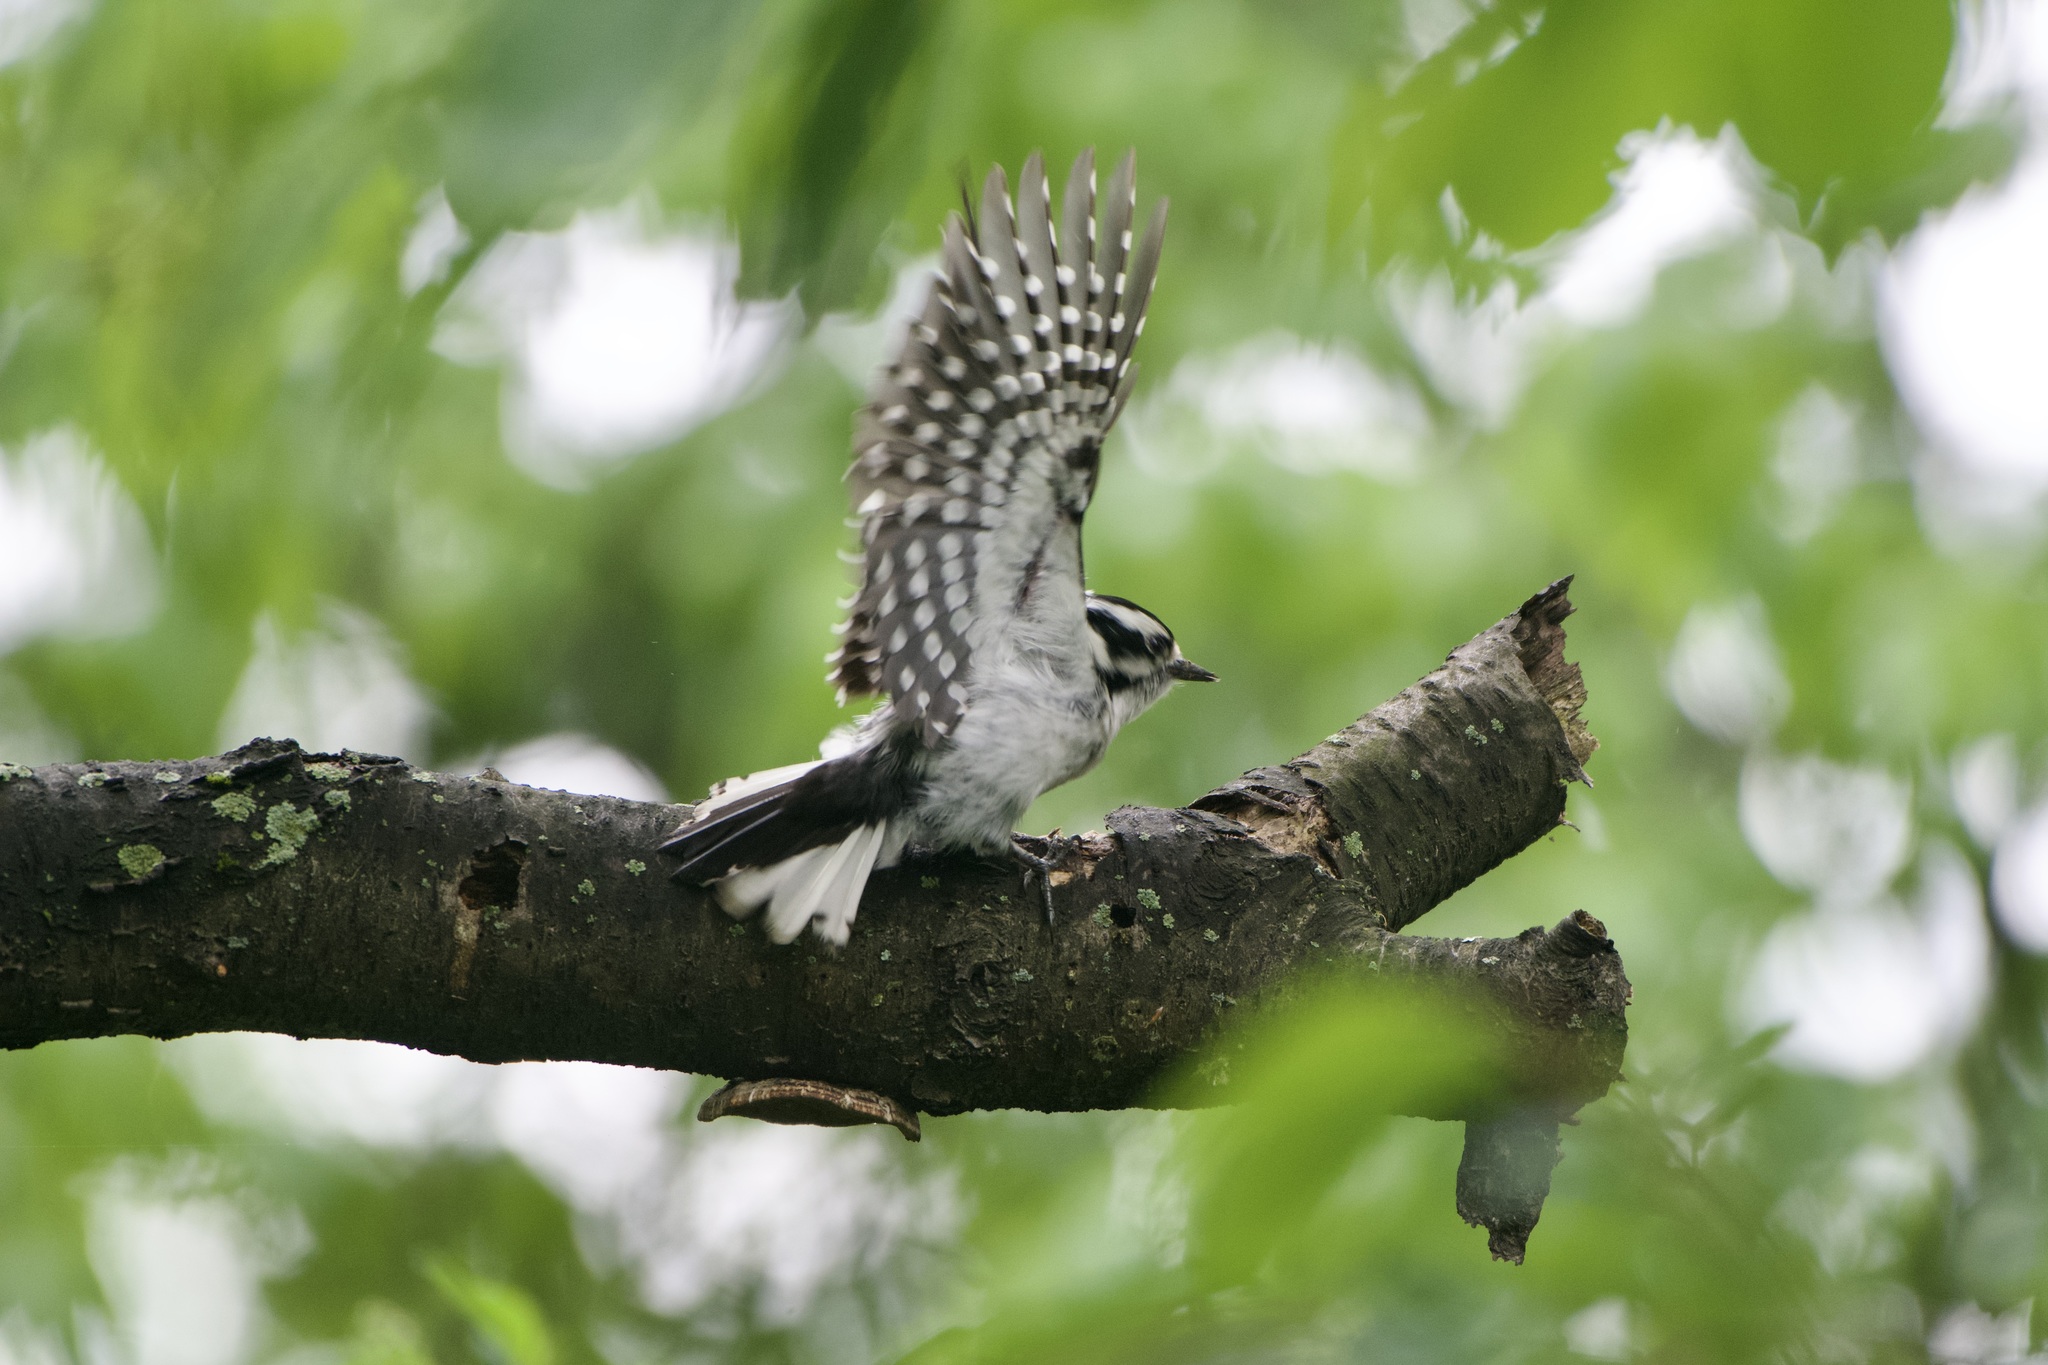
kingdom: Animalia
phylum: Chordata
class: Aves
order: Piciformes
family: Picidae
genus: Dryobates
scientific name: Dryobates pubescens
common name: Downy woodpecker
